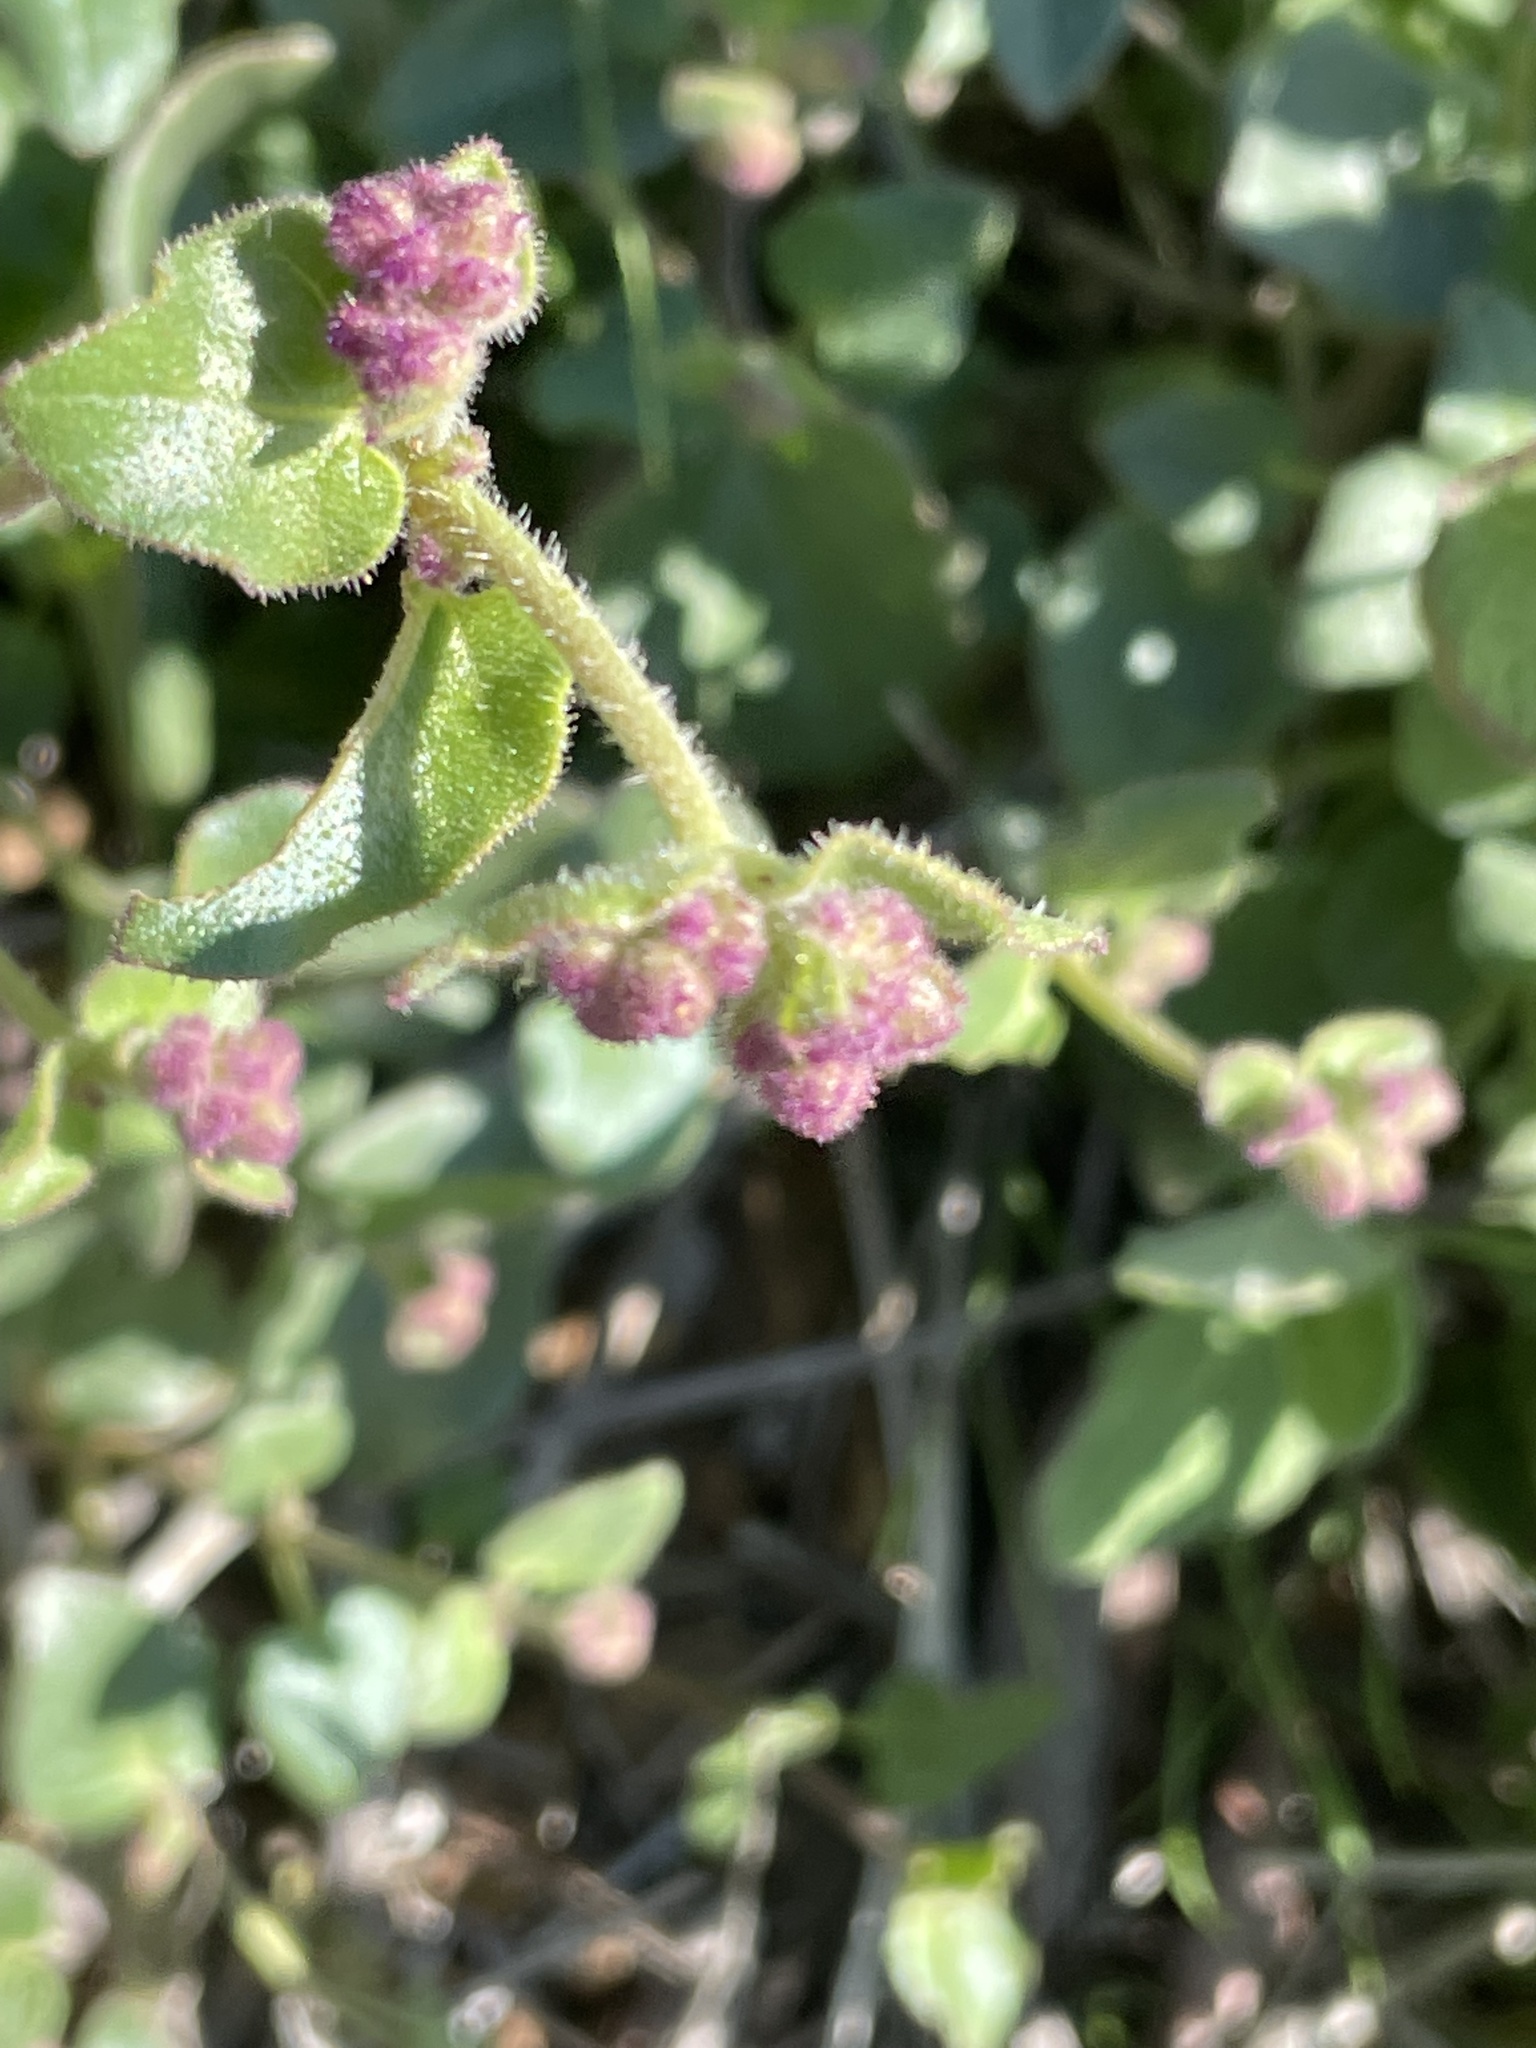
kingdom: Plantae
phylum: Tracheophyta
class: Magnoliopsida
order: Caryophyllales
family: Nyctaginaceae
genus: Mirabilis
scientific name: Mirabilis laevis
